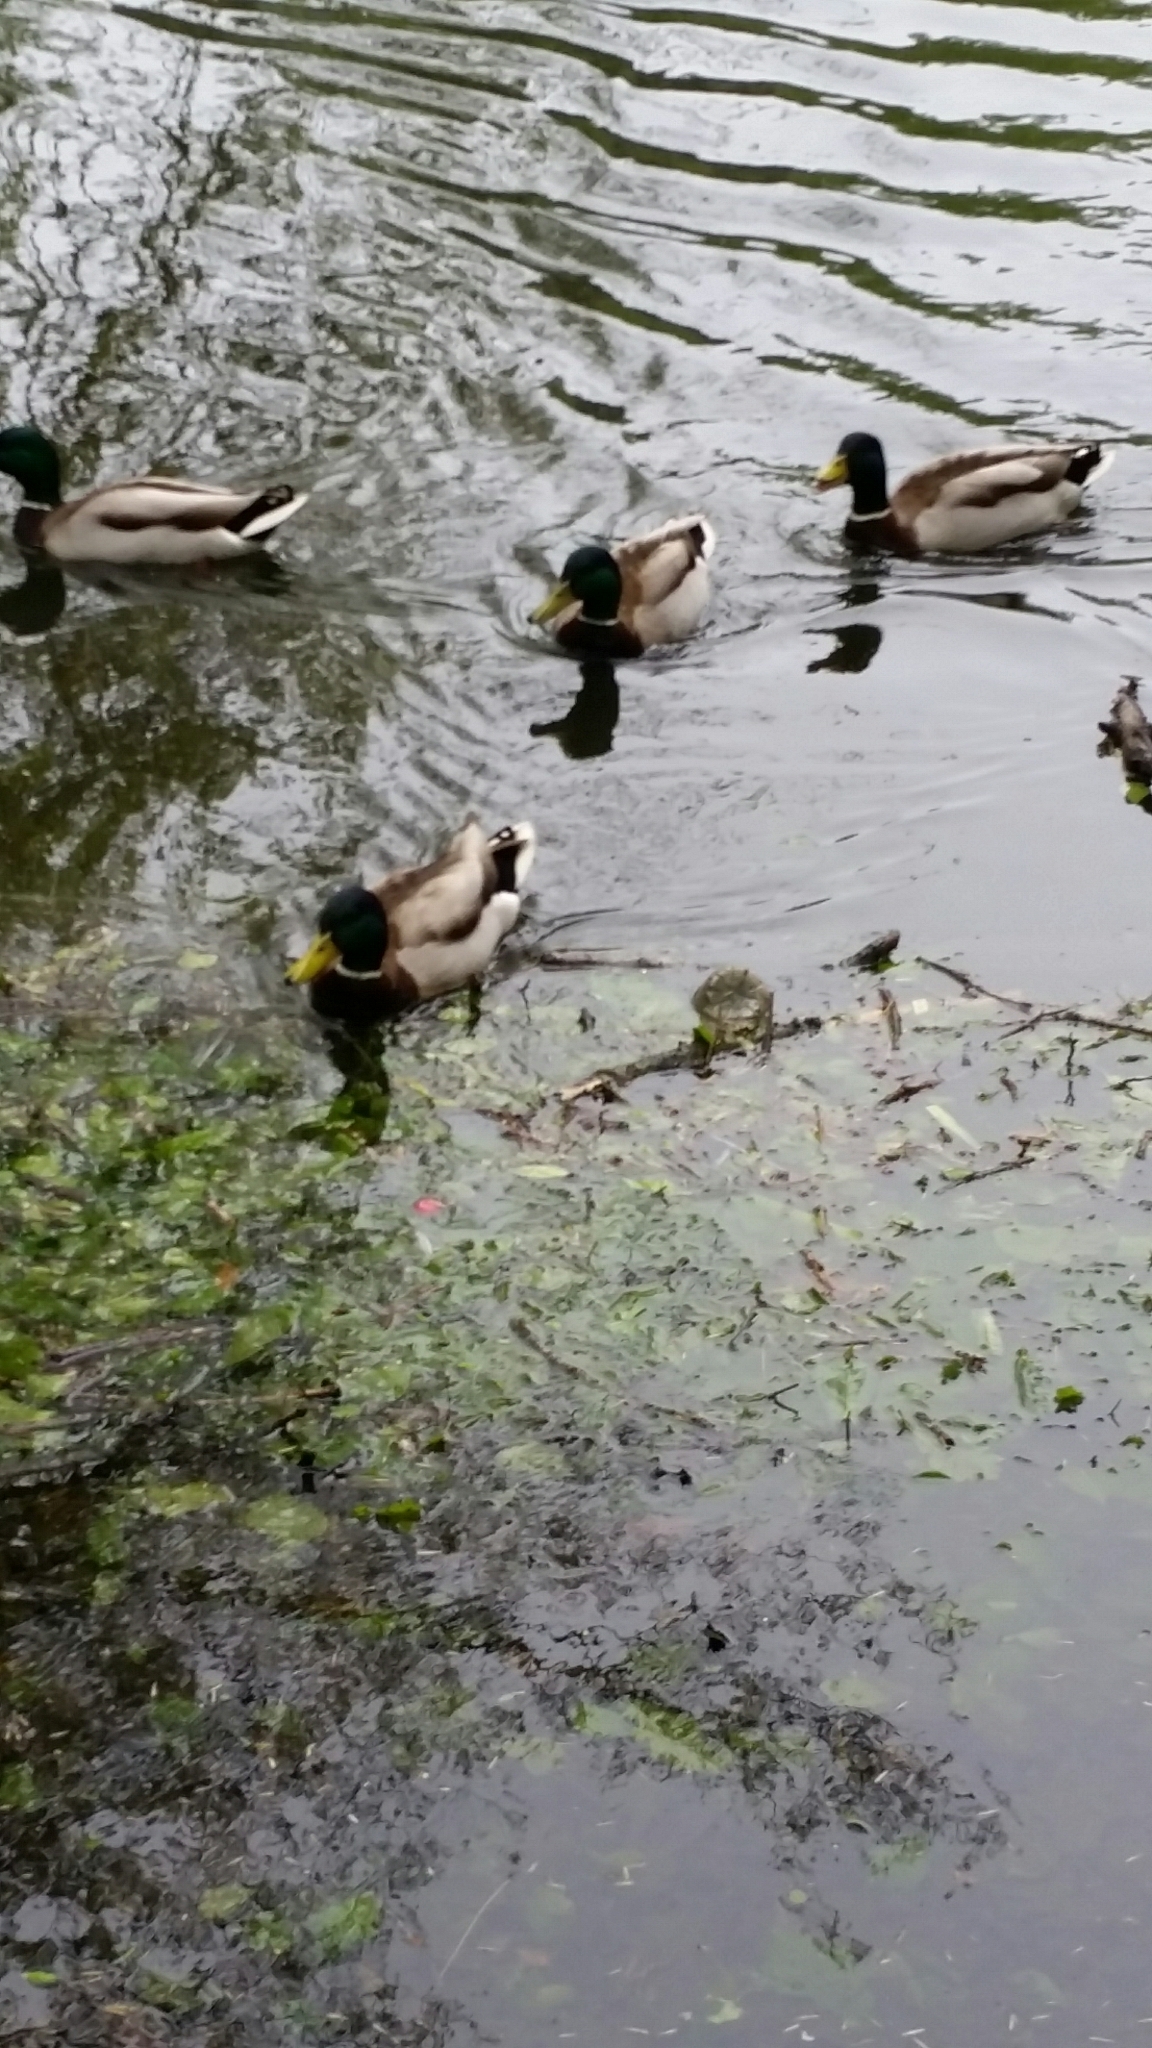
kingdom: Animalia
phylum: Chordata
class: Aves
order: Anseriformes
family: Anatidae
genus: Anas
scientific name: Anas platyrhynchos
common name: Mallard
